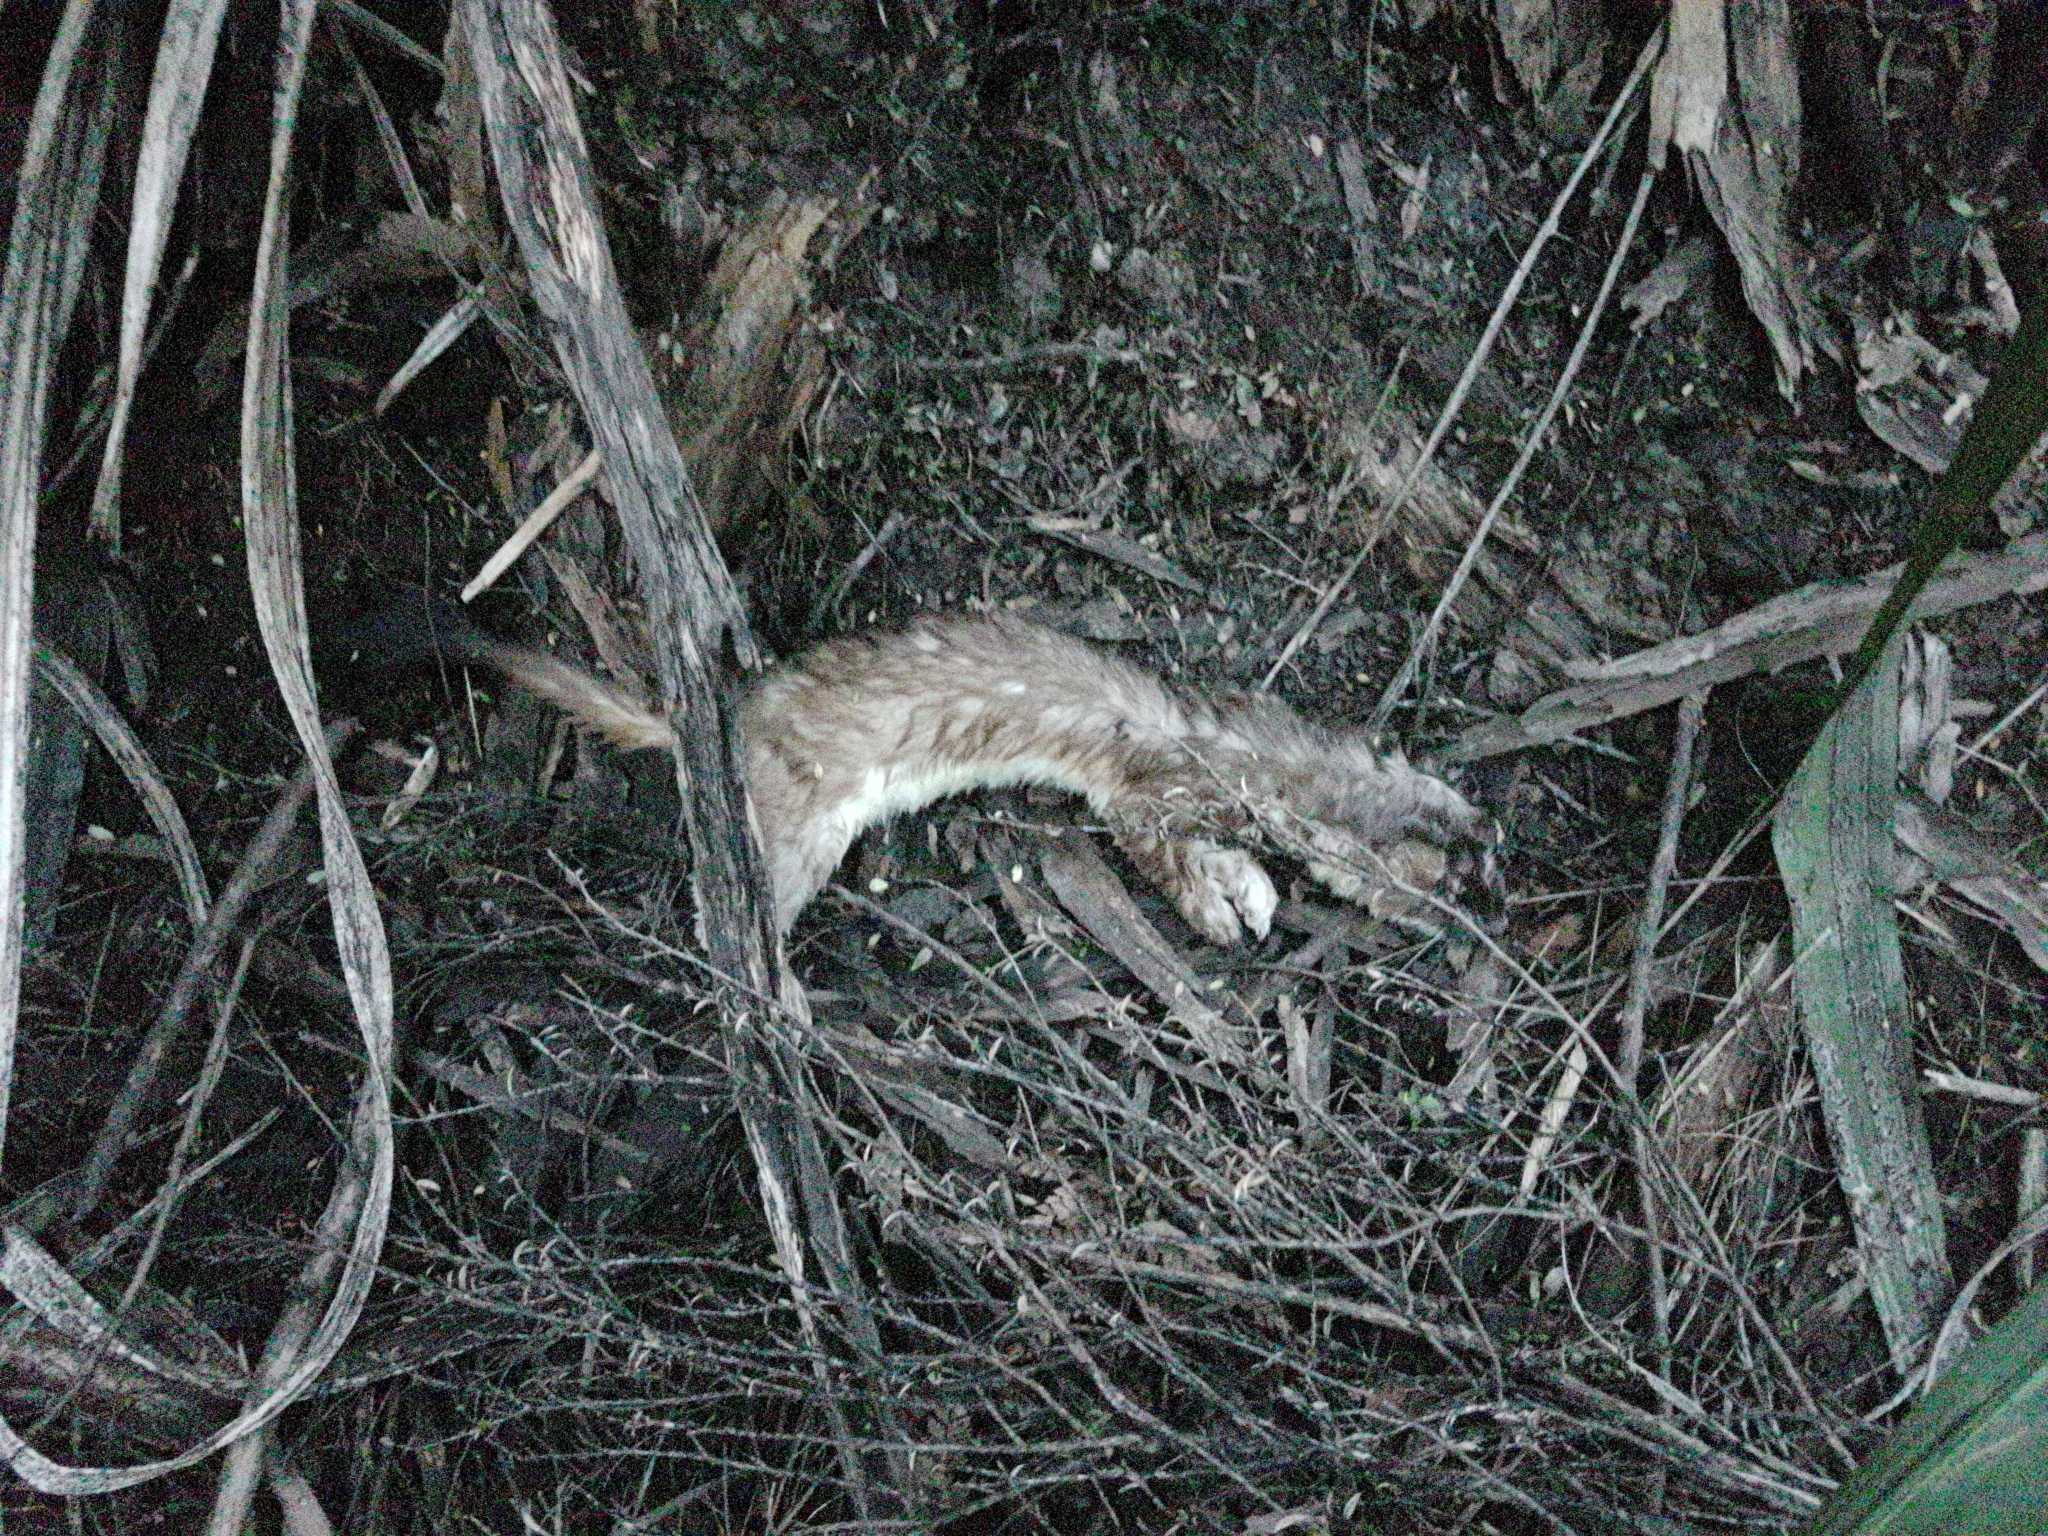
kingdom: Animalia
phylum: Chordata
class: Mammalia
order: Carnivora
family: Mustelidae
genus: Mustela
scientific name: Mustela erminea
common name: Stoat
